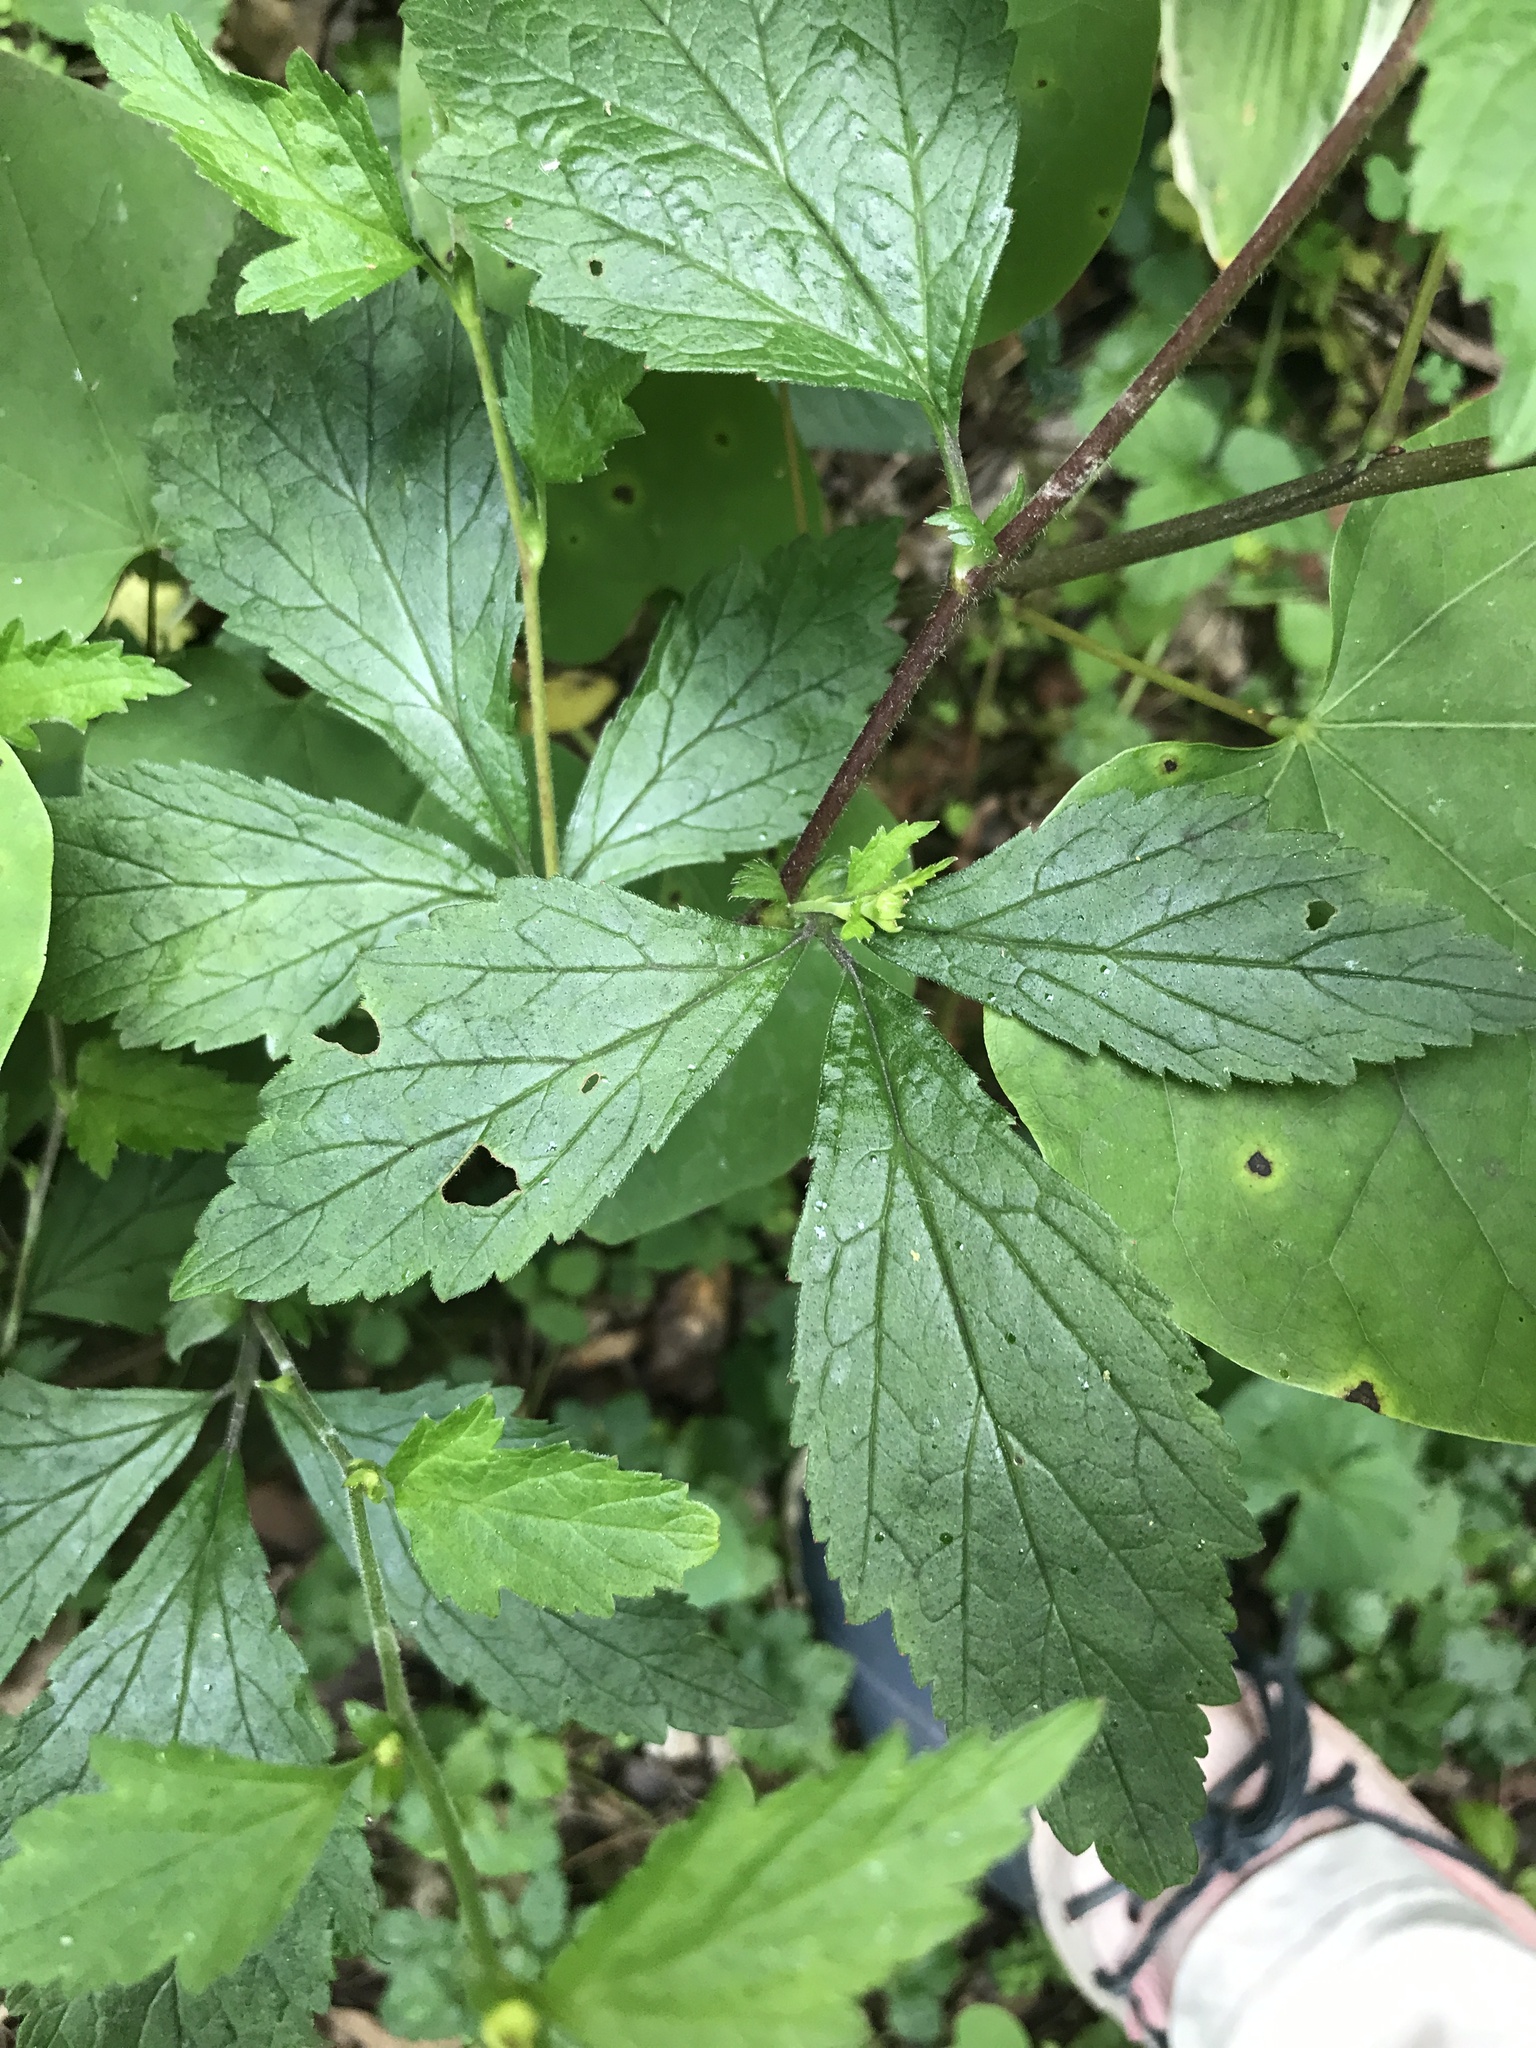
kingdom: Plantae
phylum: Tracheophyta
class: Magnoliopsida
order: Rosales
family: Rosaceae
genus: Geum
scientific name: Geum canadense
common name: White avens
